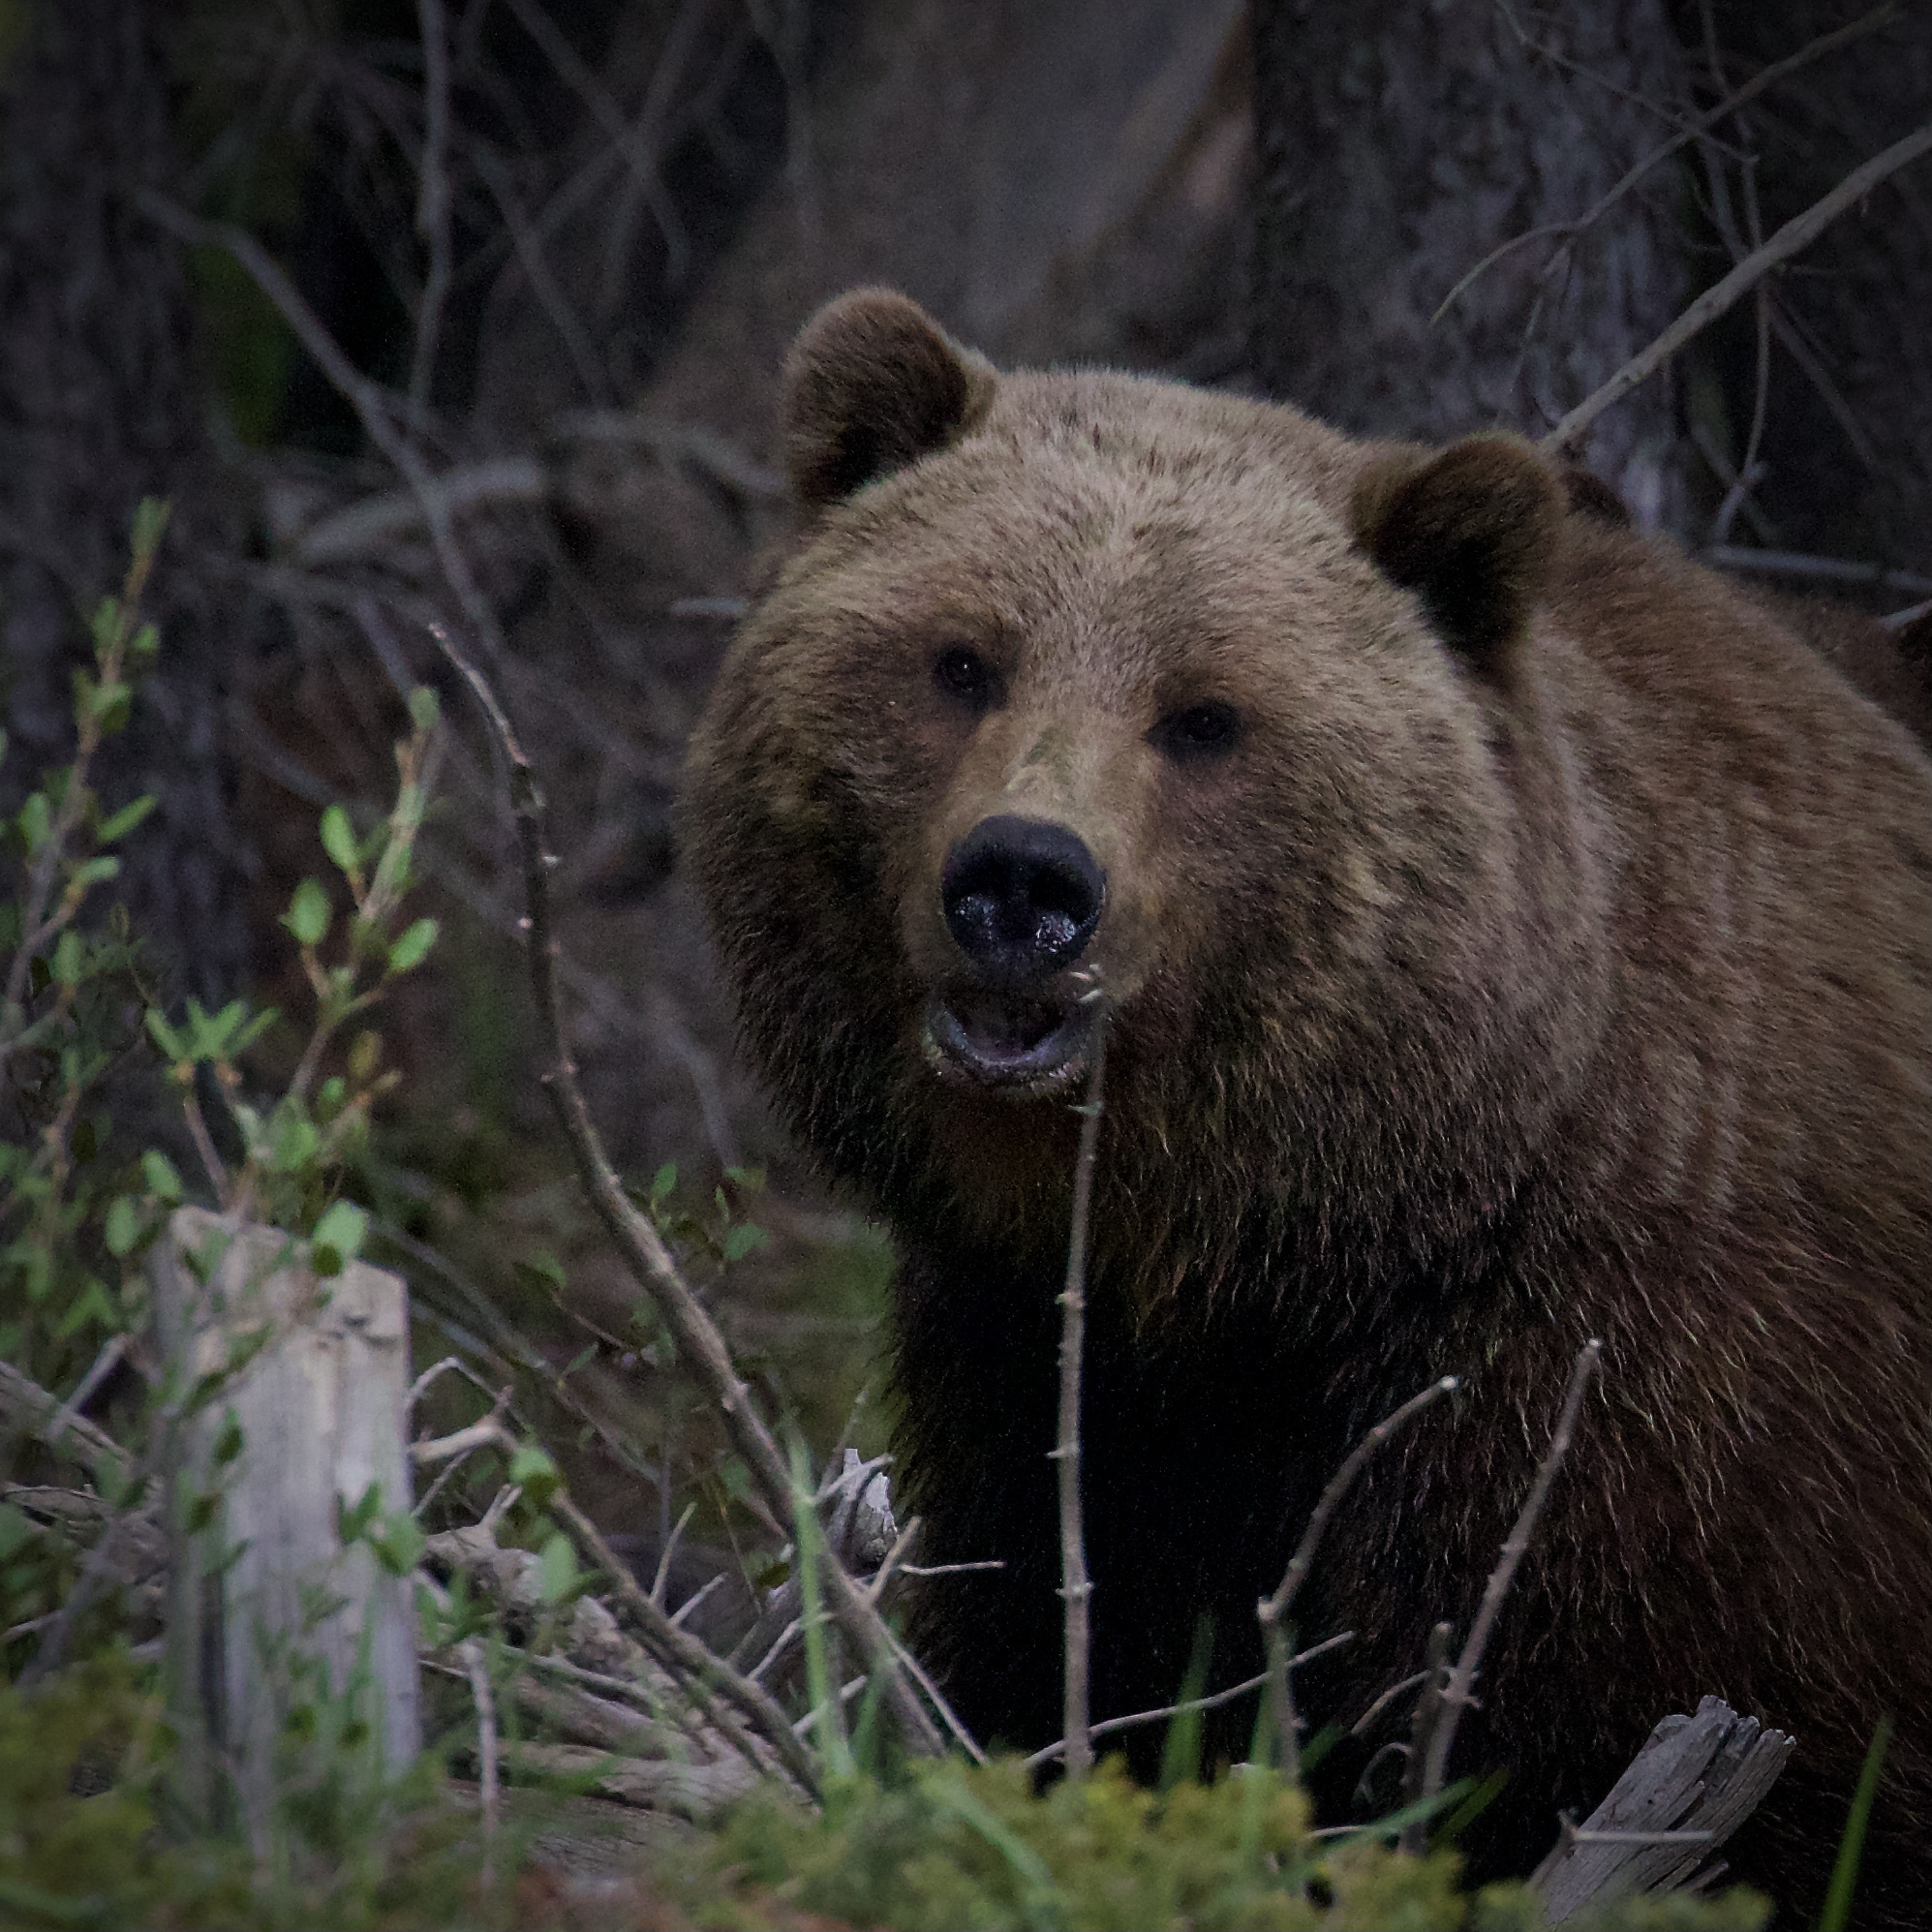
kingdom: Animalia
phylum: Chordata
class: Mammalia
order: Carnivora
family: Ursidae
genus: Ursus
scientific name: Ursus arctos
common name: Brown bear
